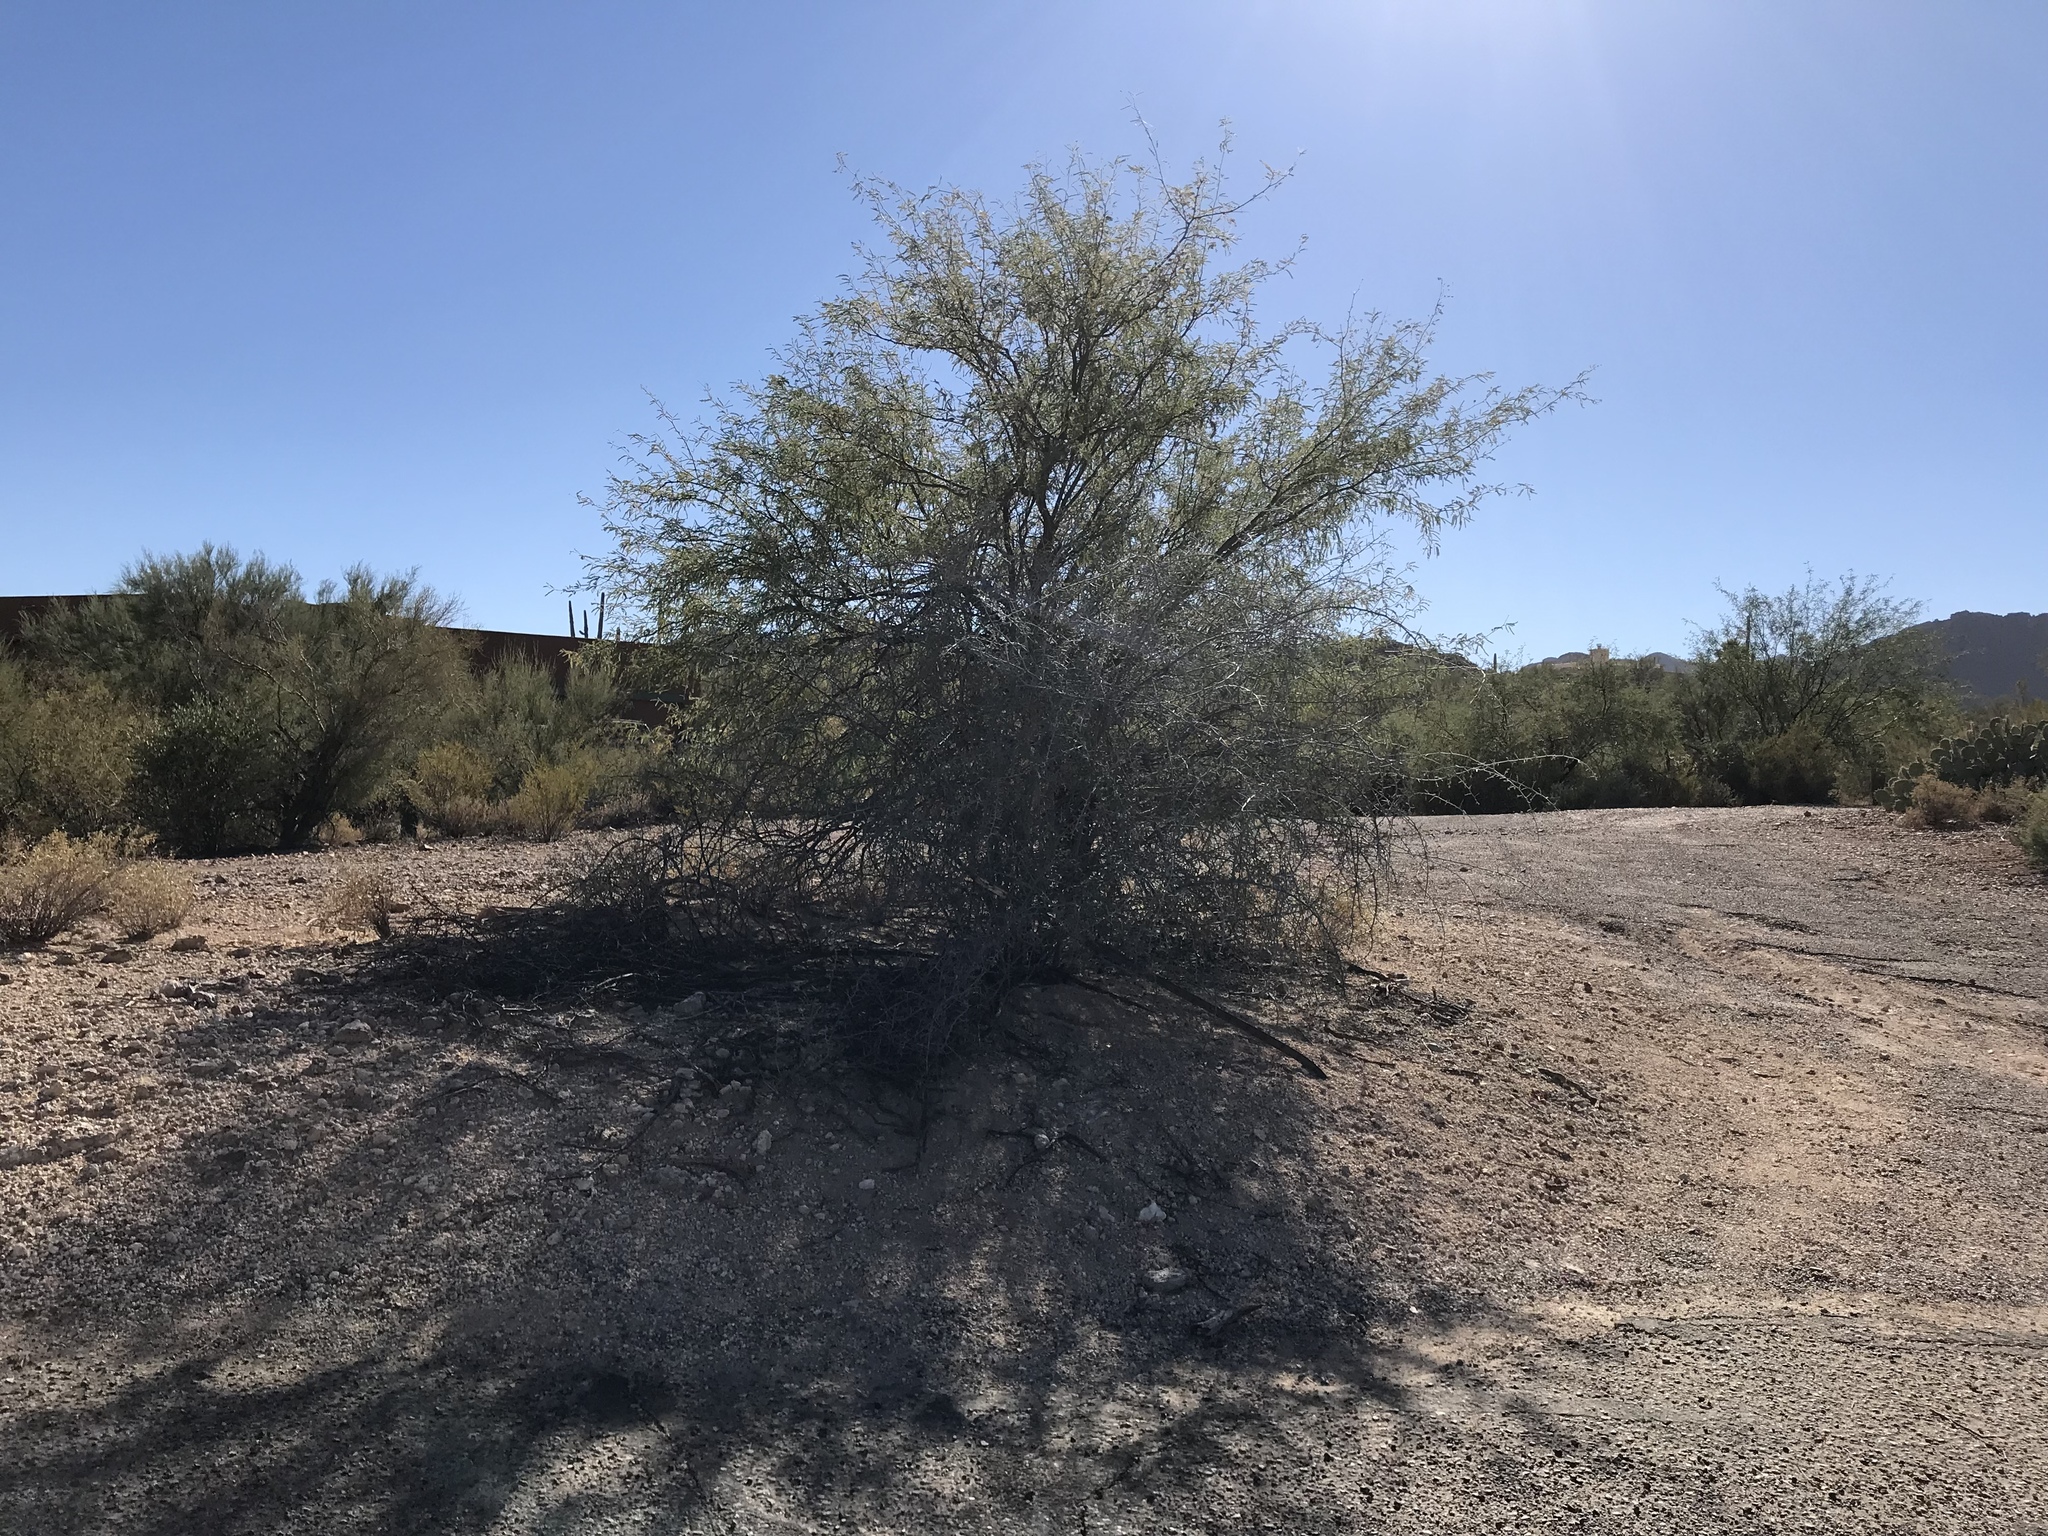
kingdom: Plantae
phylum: Tracheophyta
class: Magnoliopsida
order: Fabales
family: Fabaceae
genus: Olneya
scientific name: Olneya tesota
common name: Desert ironwood
